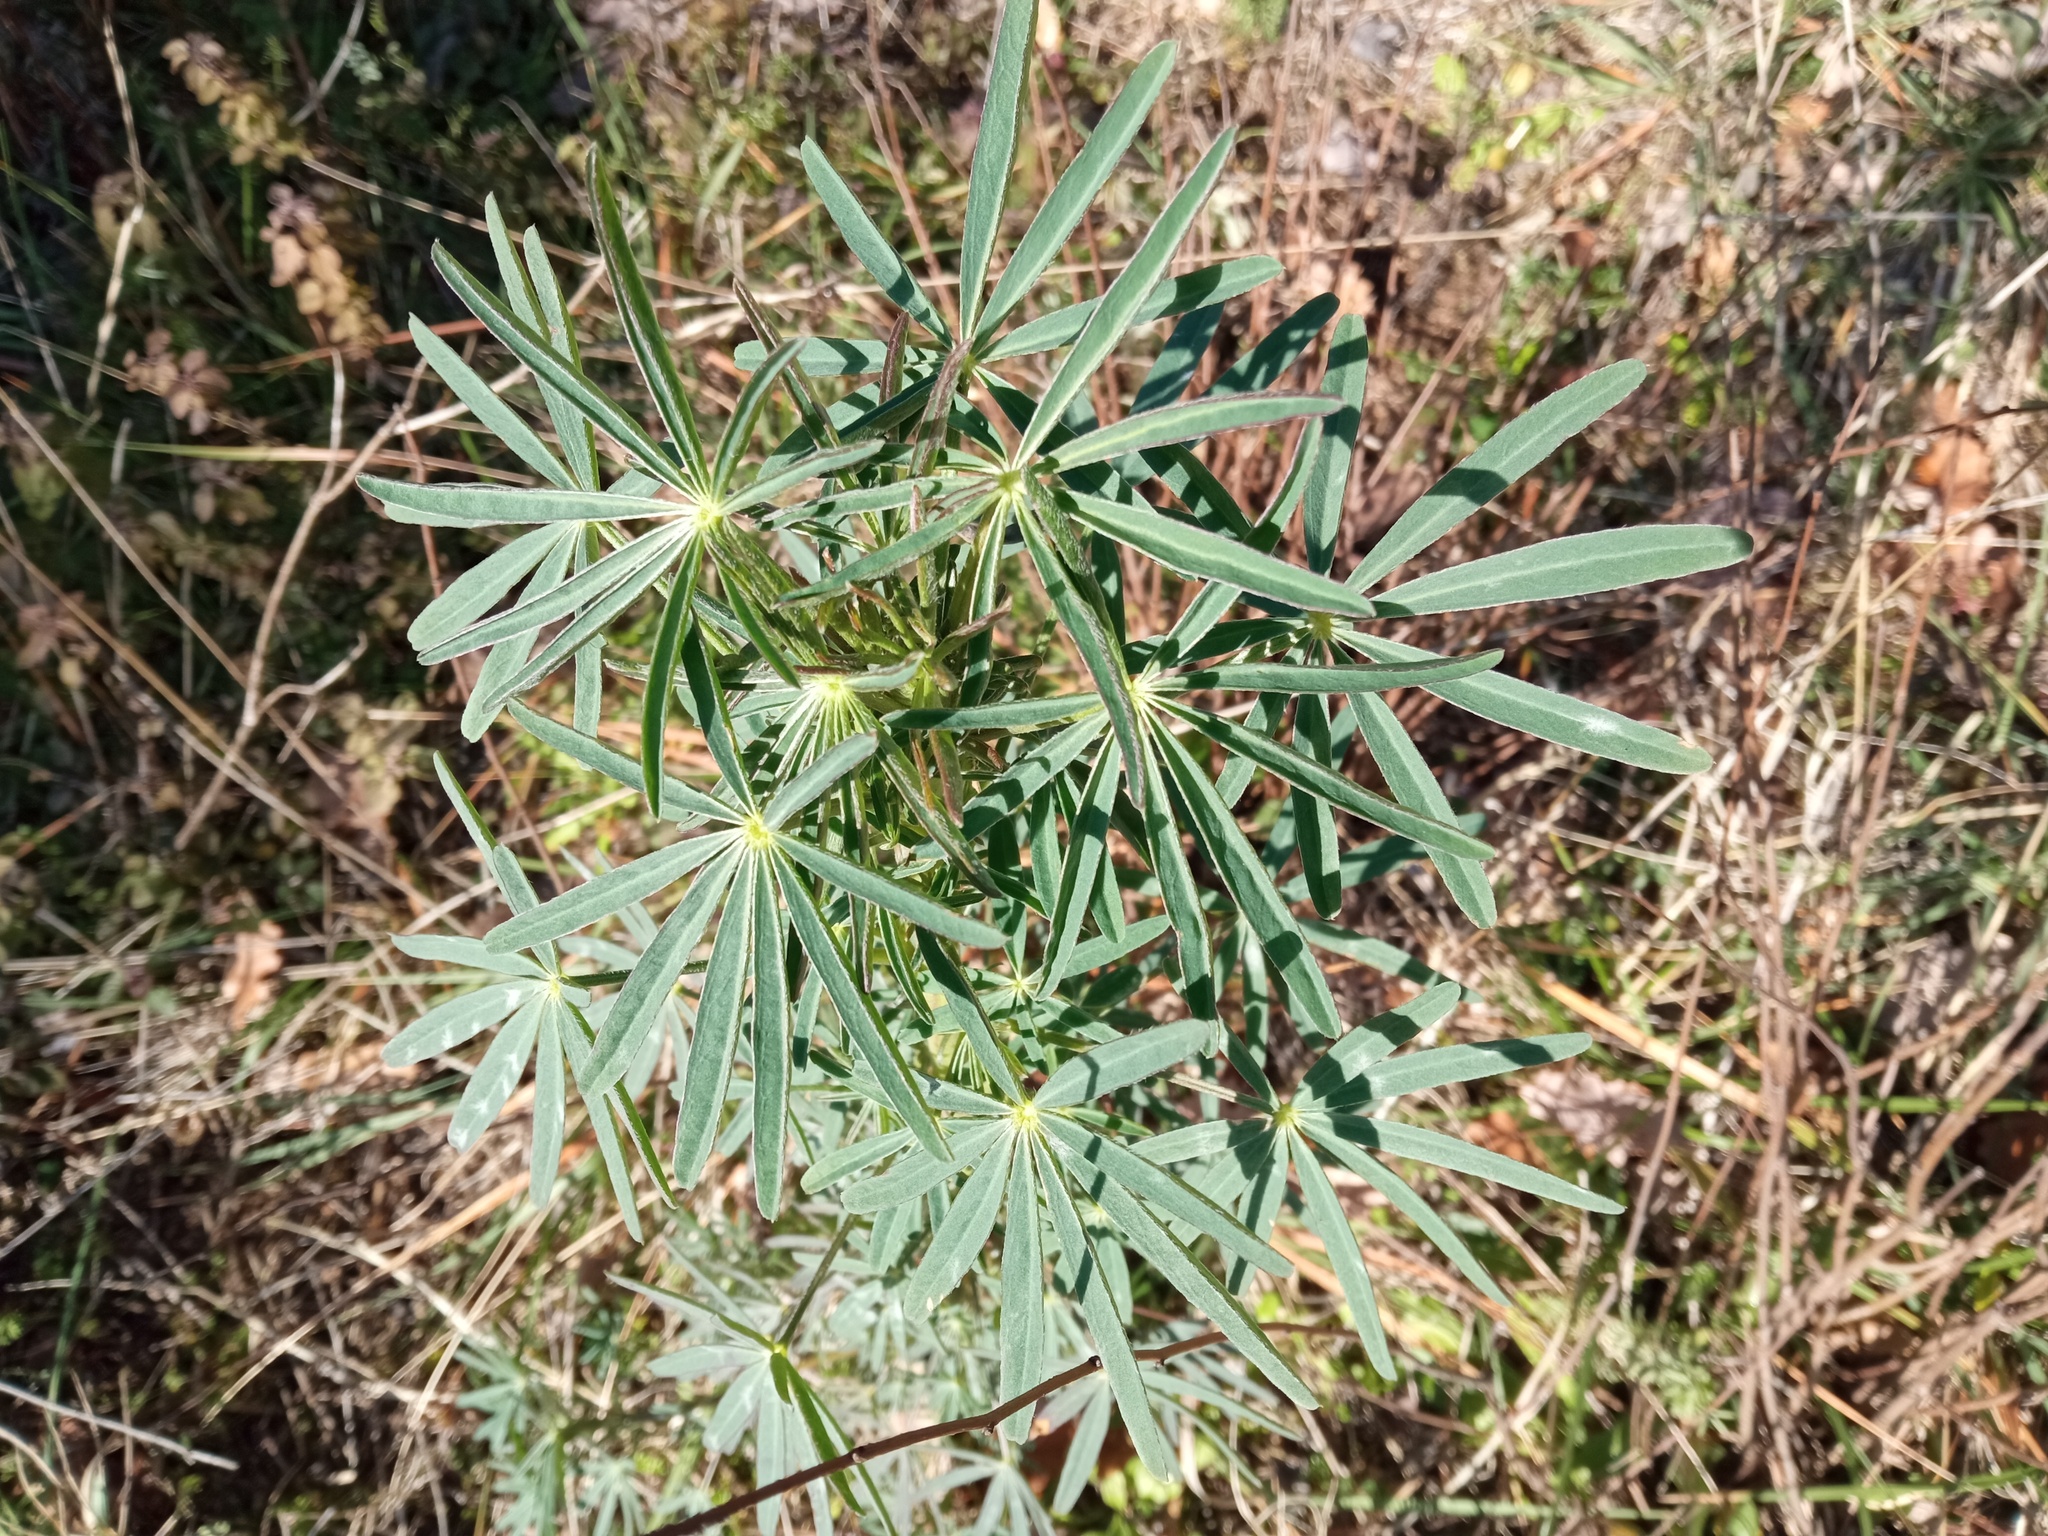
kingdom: Plantae
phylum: Tracheophyta
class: Magnoliopsida
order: Fabales
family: Fabaceae
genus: Lupinus
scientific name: Lupinus angustifolius
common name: Narrow-leaved lupin
